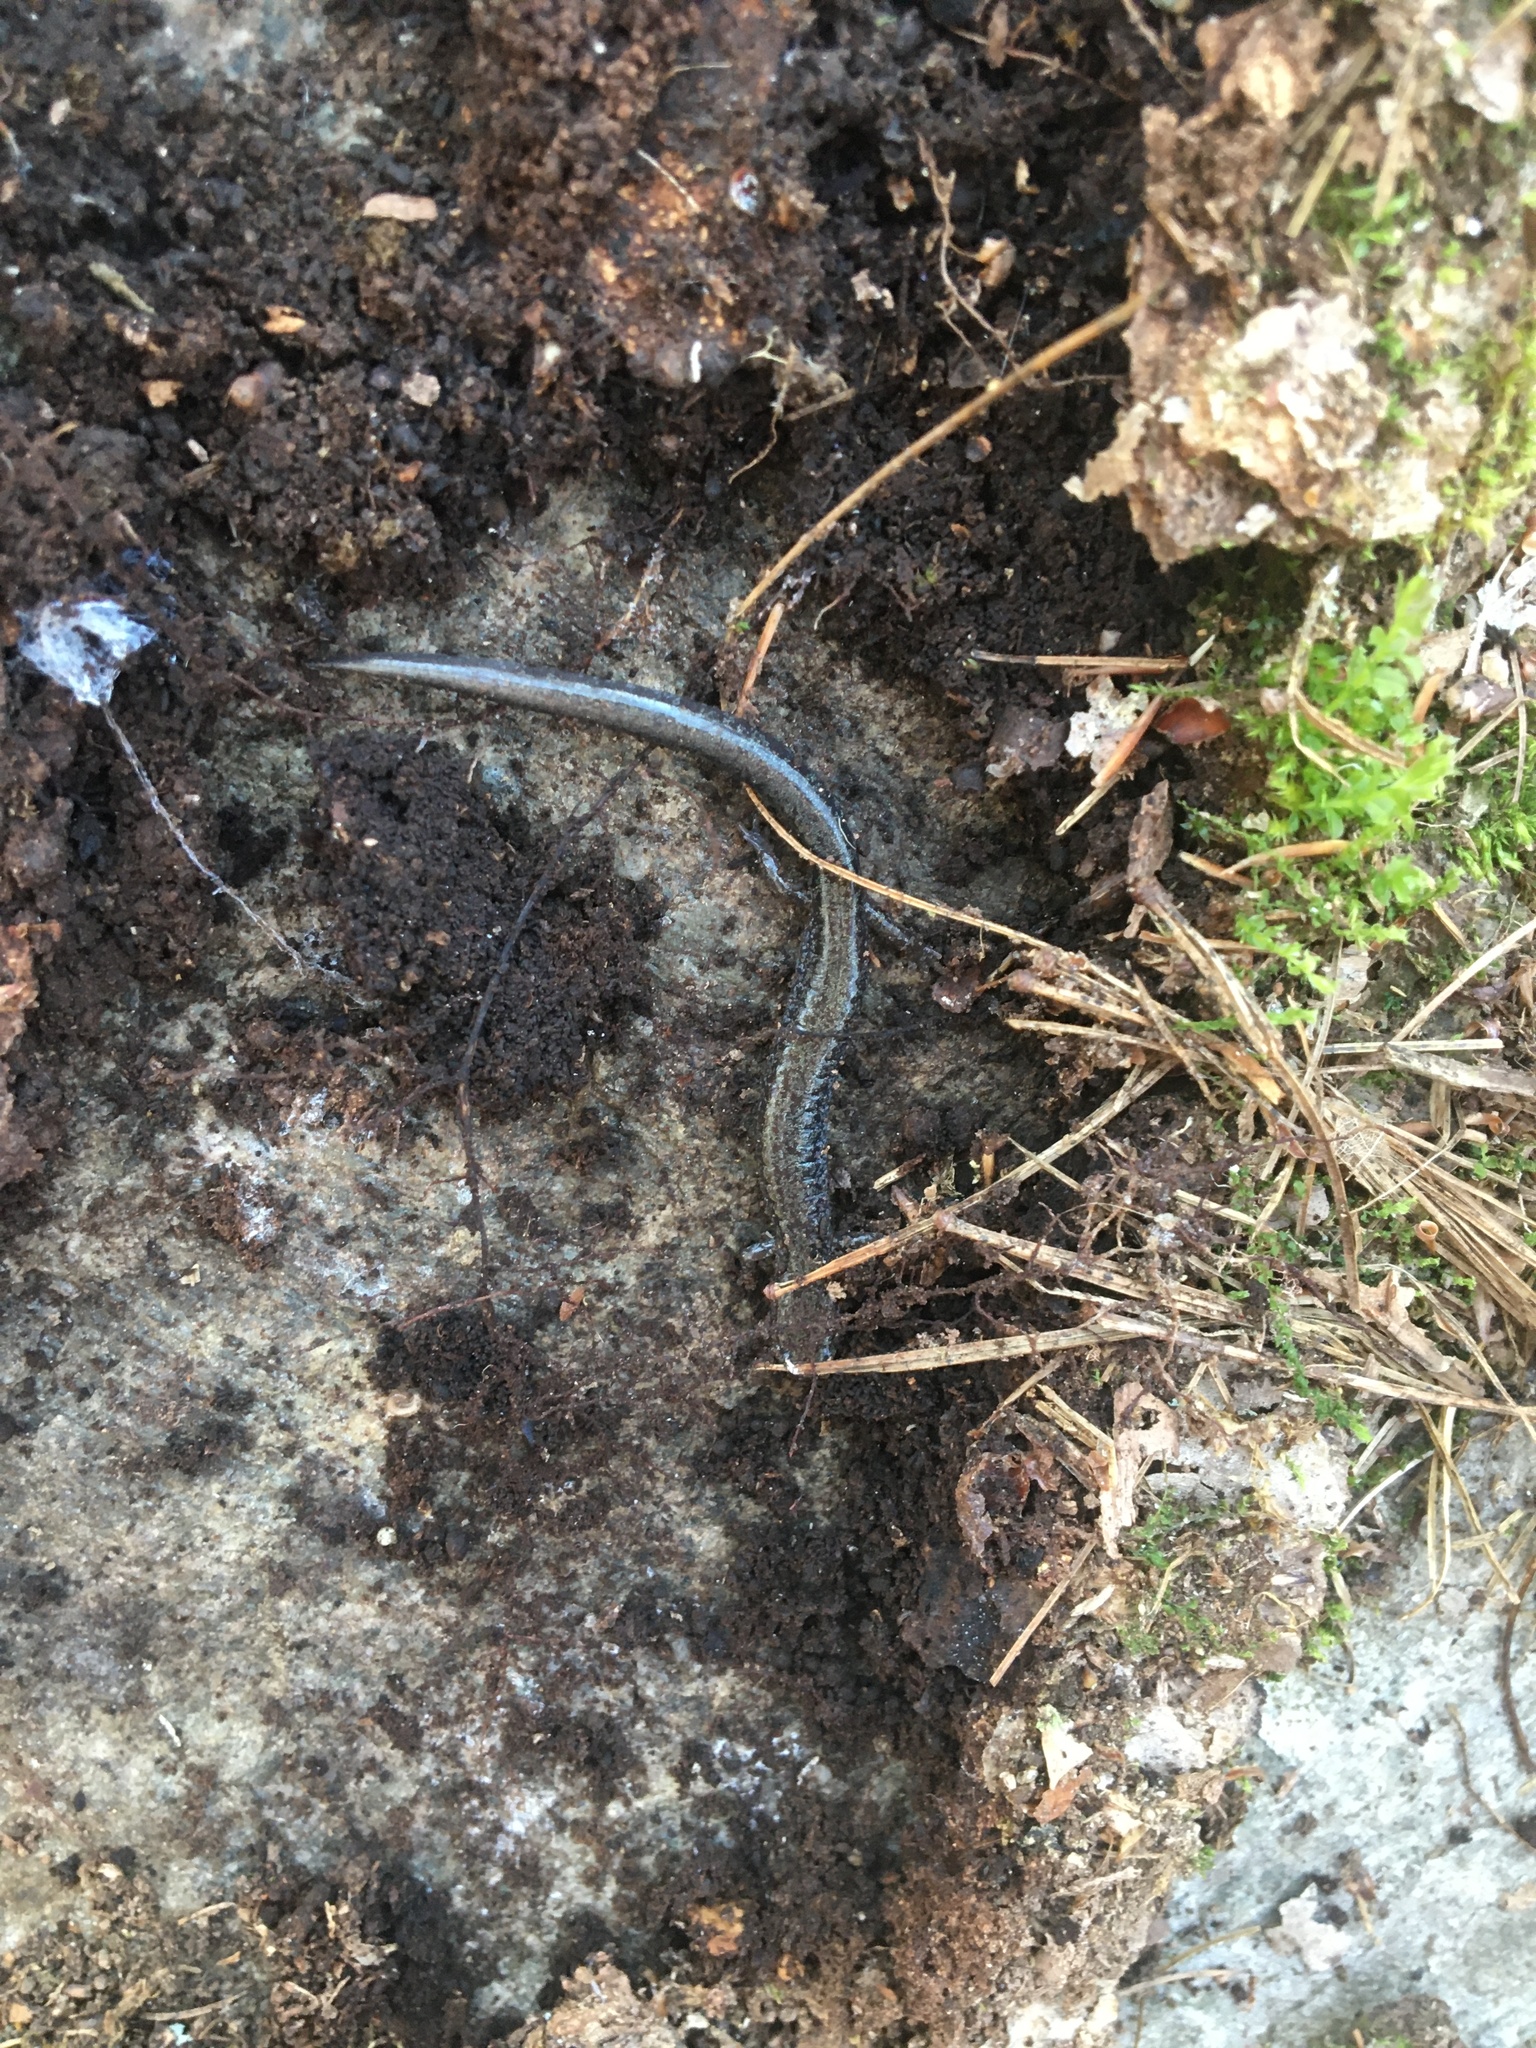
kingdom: Animalia
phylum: Chordata
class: Amphibia
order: Caudata
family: Plethodontidae
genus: Plethodon
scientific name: Plethodon cinereus
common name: Redback salamander
